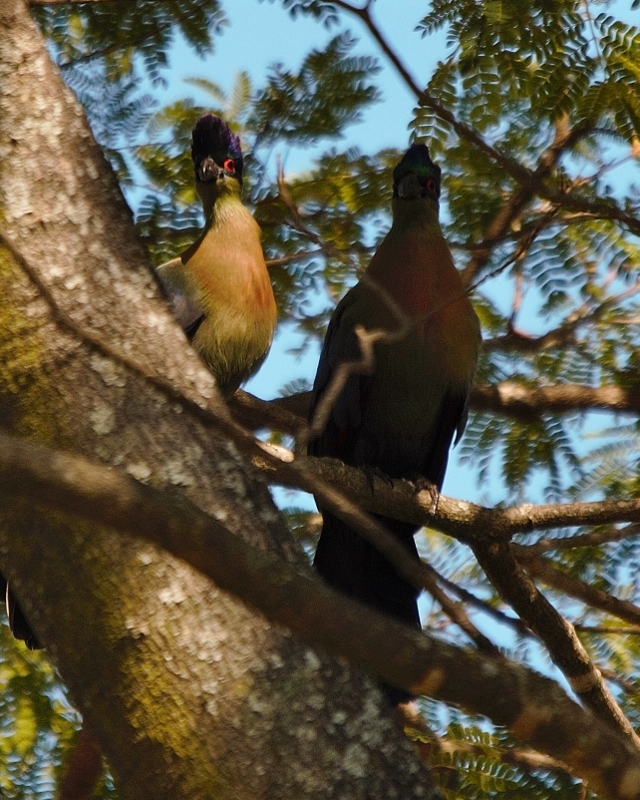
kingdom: Animalia
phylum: Chordata
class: Aves
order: Musophagiformes
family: Musophagidae
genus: Tauraco
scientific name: Tauraco porphyreolophus
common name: Purple-crested turaco
